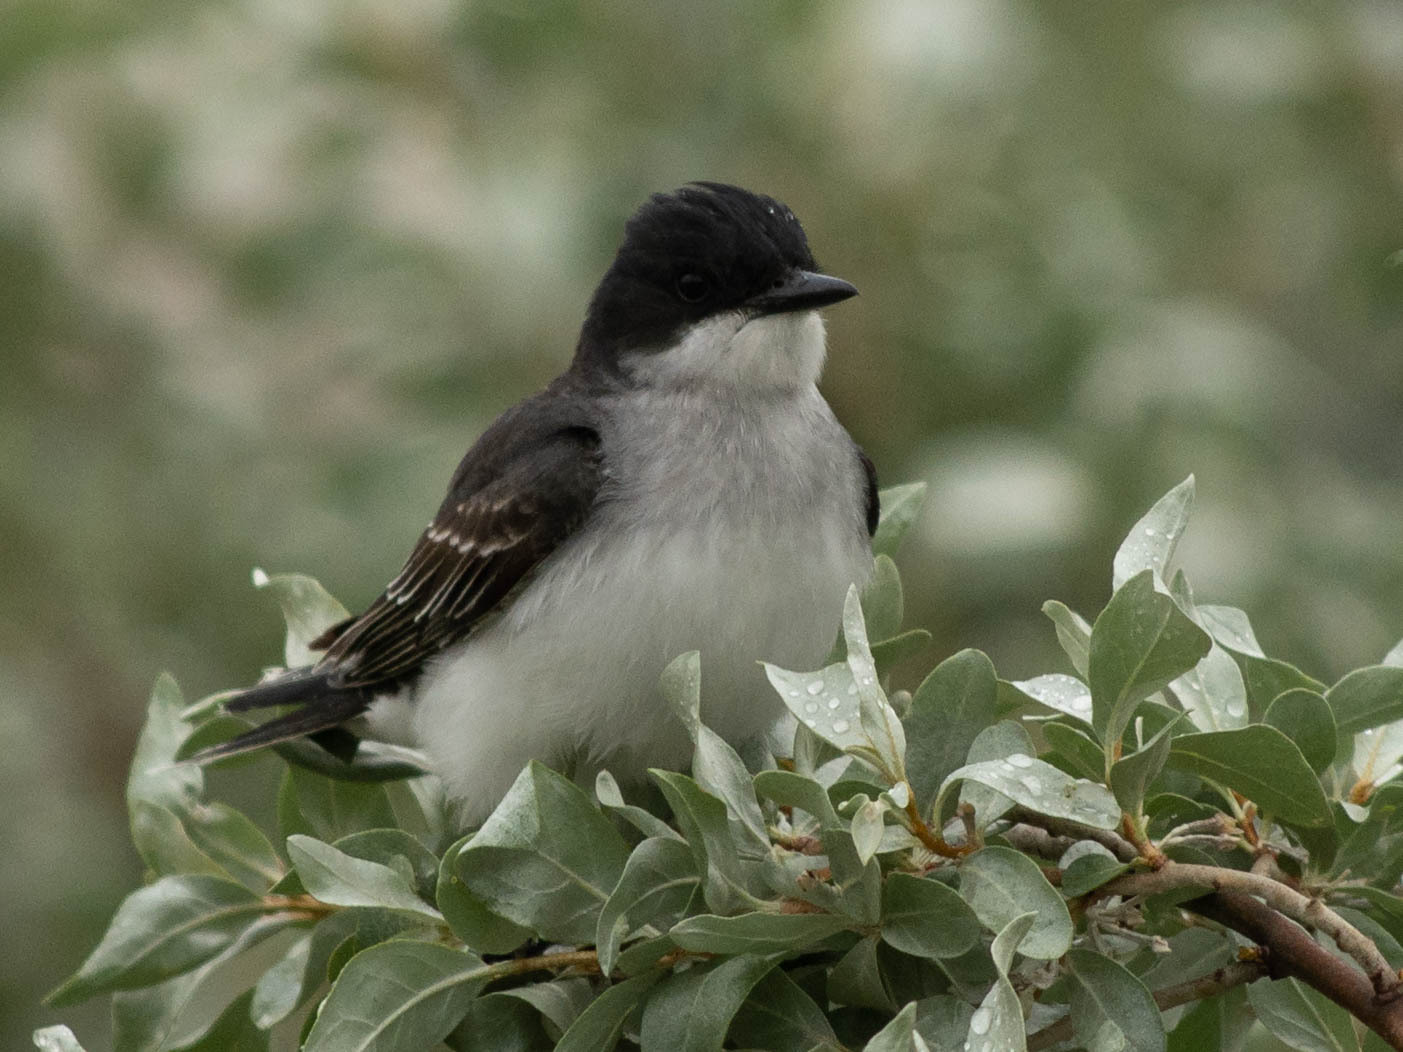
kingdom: Animalia
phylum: Chordata
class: Aves
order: Passeriformes
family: Tyrannidae
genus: Tyrannus
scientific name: Tyrannus tyrannus
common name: Eastern kingbird
